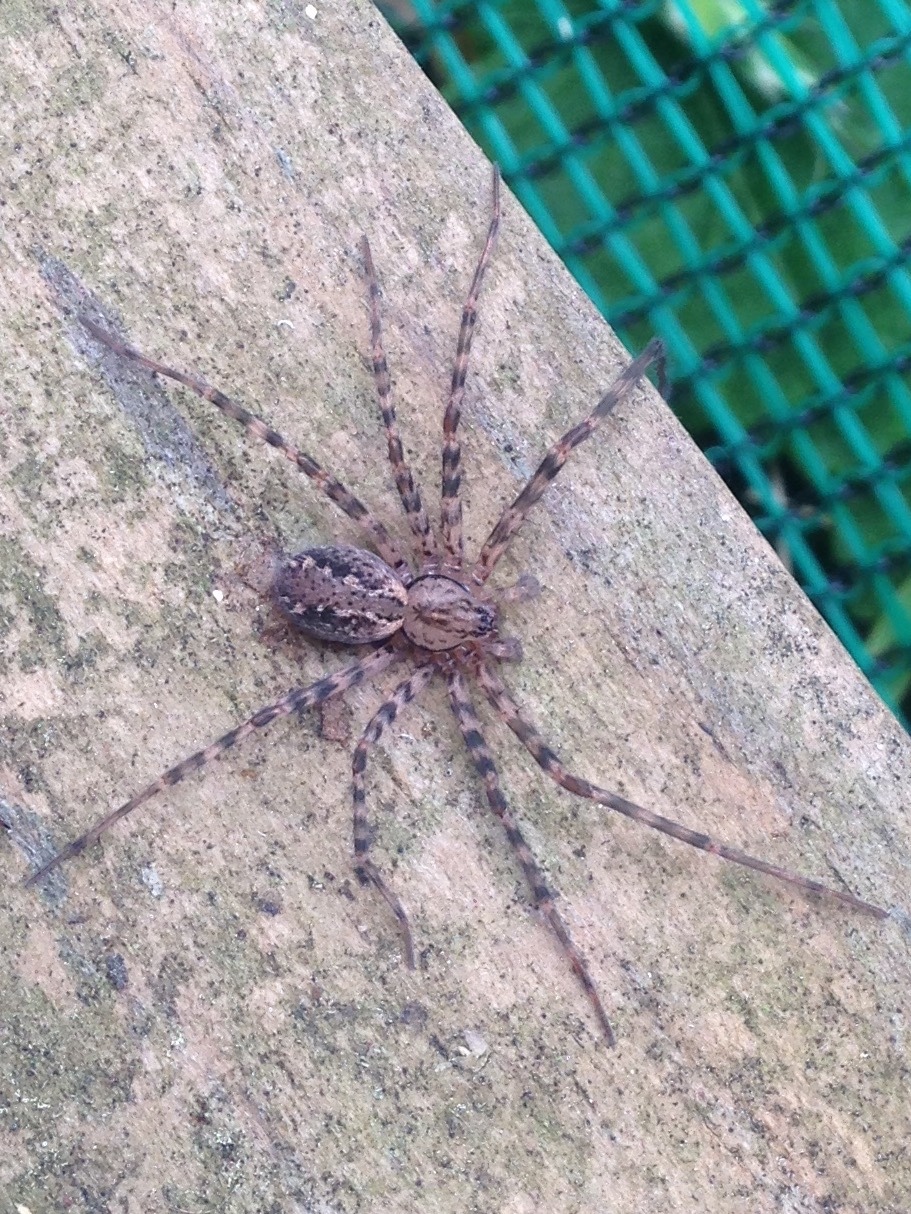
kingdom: Animalia
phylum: Arthropoda
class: Arachnida
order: Araneae
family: Stiphidiidae
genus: Stiphidion
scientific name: Stiphidion facetum
